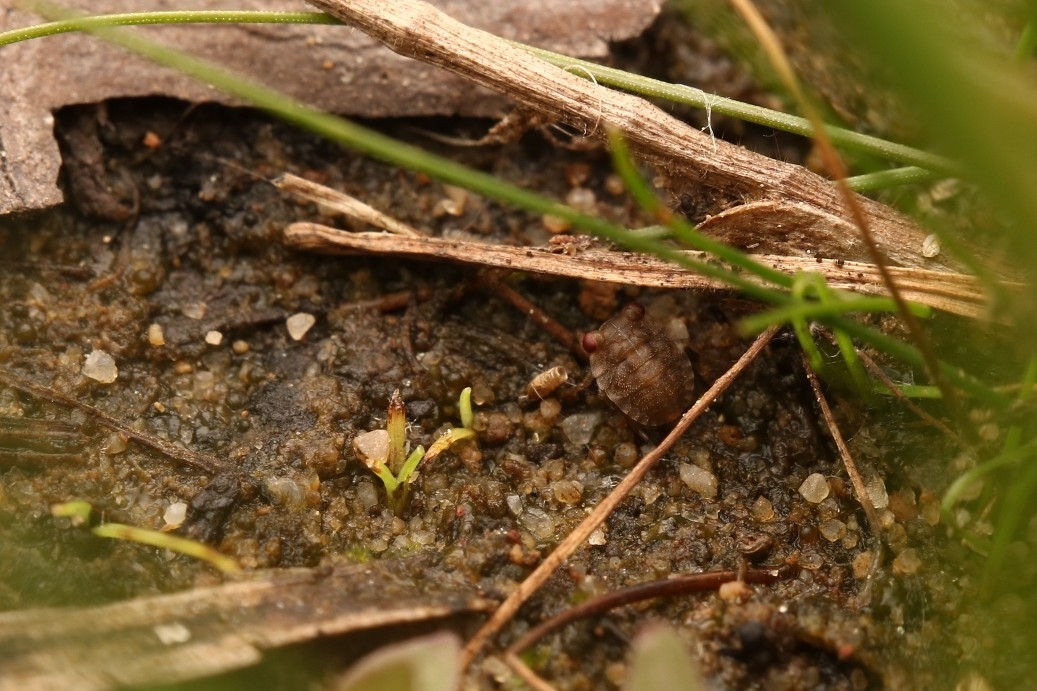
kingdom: Animalia
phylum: Arthropoda
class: Insecta
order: Hemiptera
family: Gelastocoridae
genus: Gelastocoris
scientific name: Gelastocoris oculatus
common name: Toad bug
